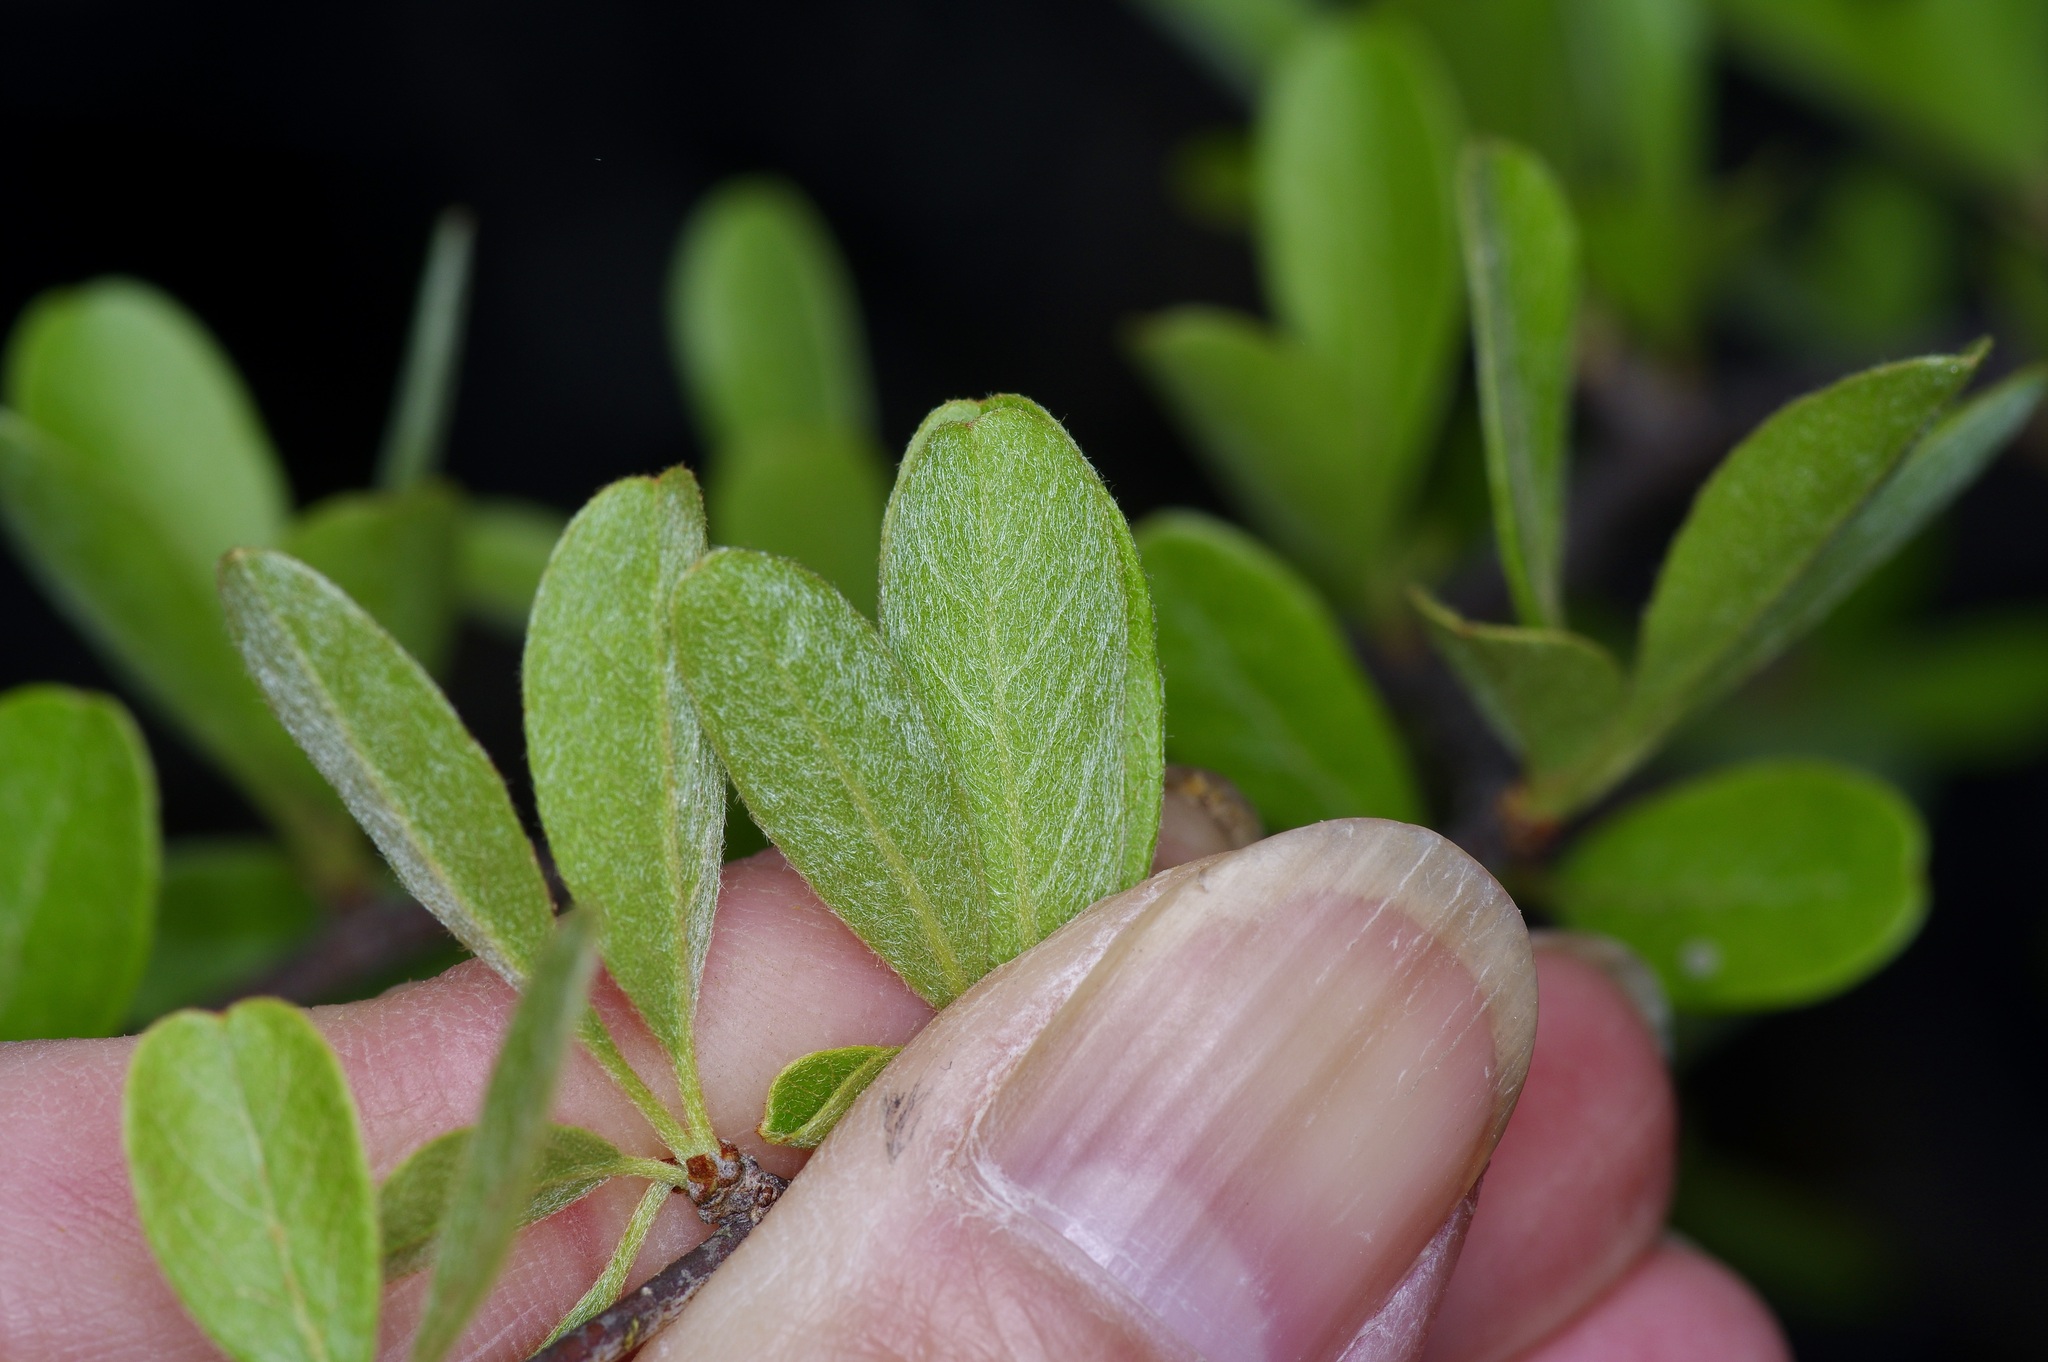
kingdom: Plantae
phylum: Tracheophyta
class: Magnoliopsida
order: Ericales
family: Sapotaceae
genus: Sideroxylon
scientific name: Sideroxylon lanuginosum
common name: Chittamwood
